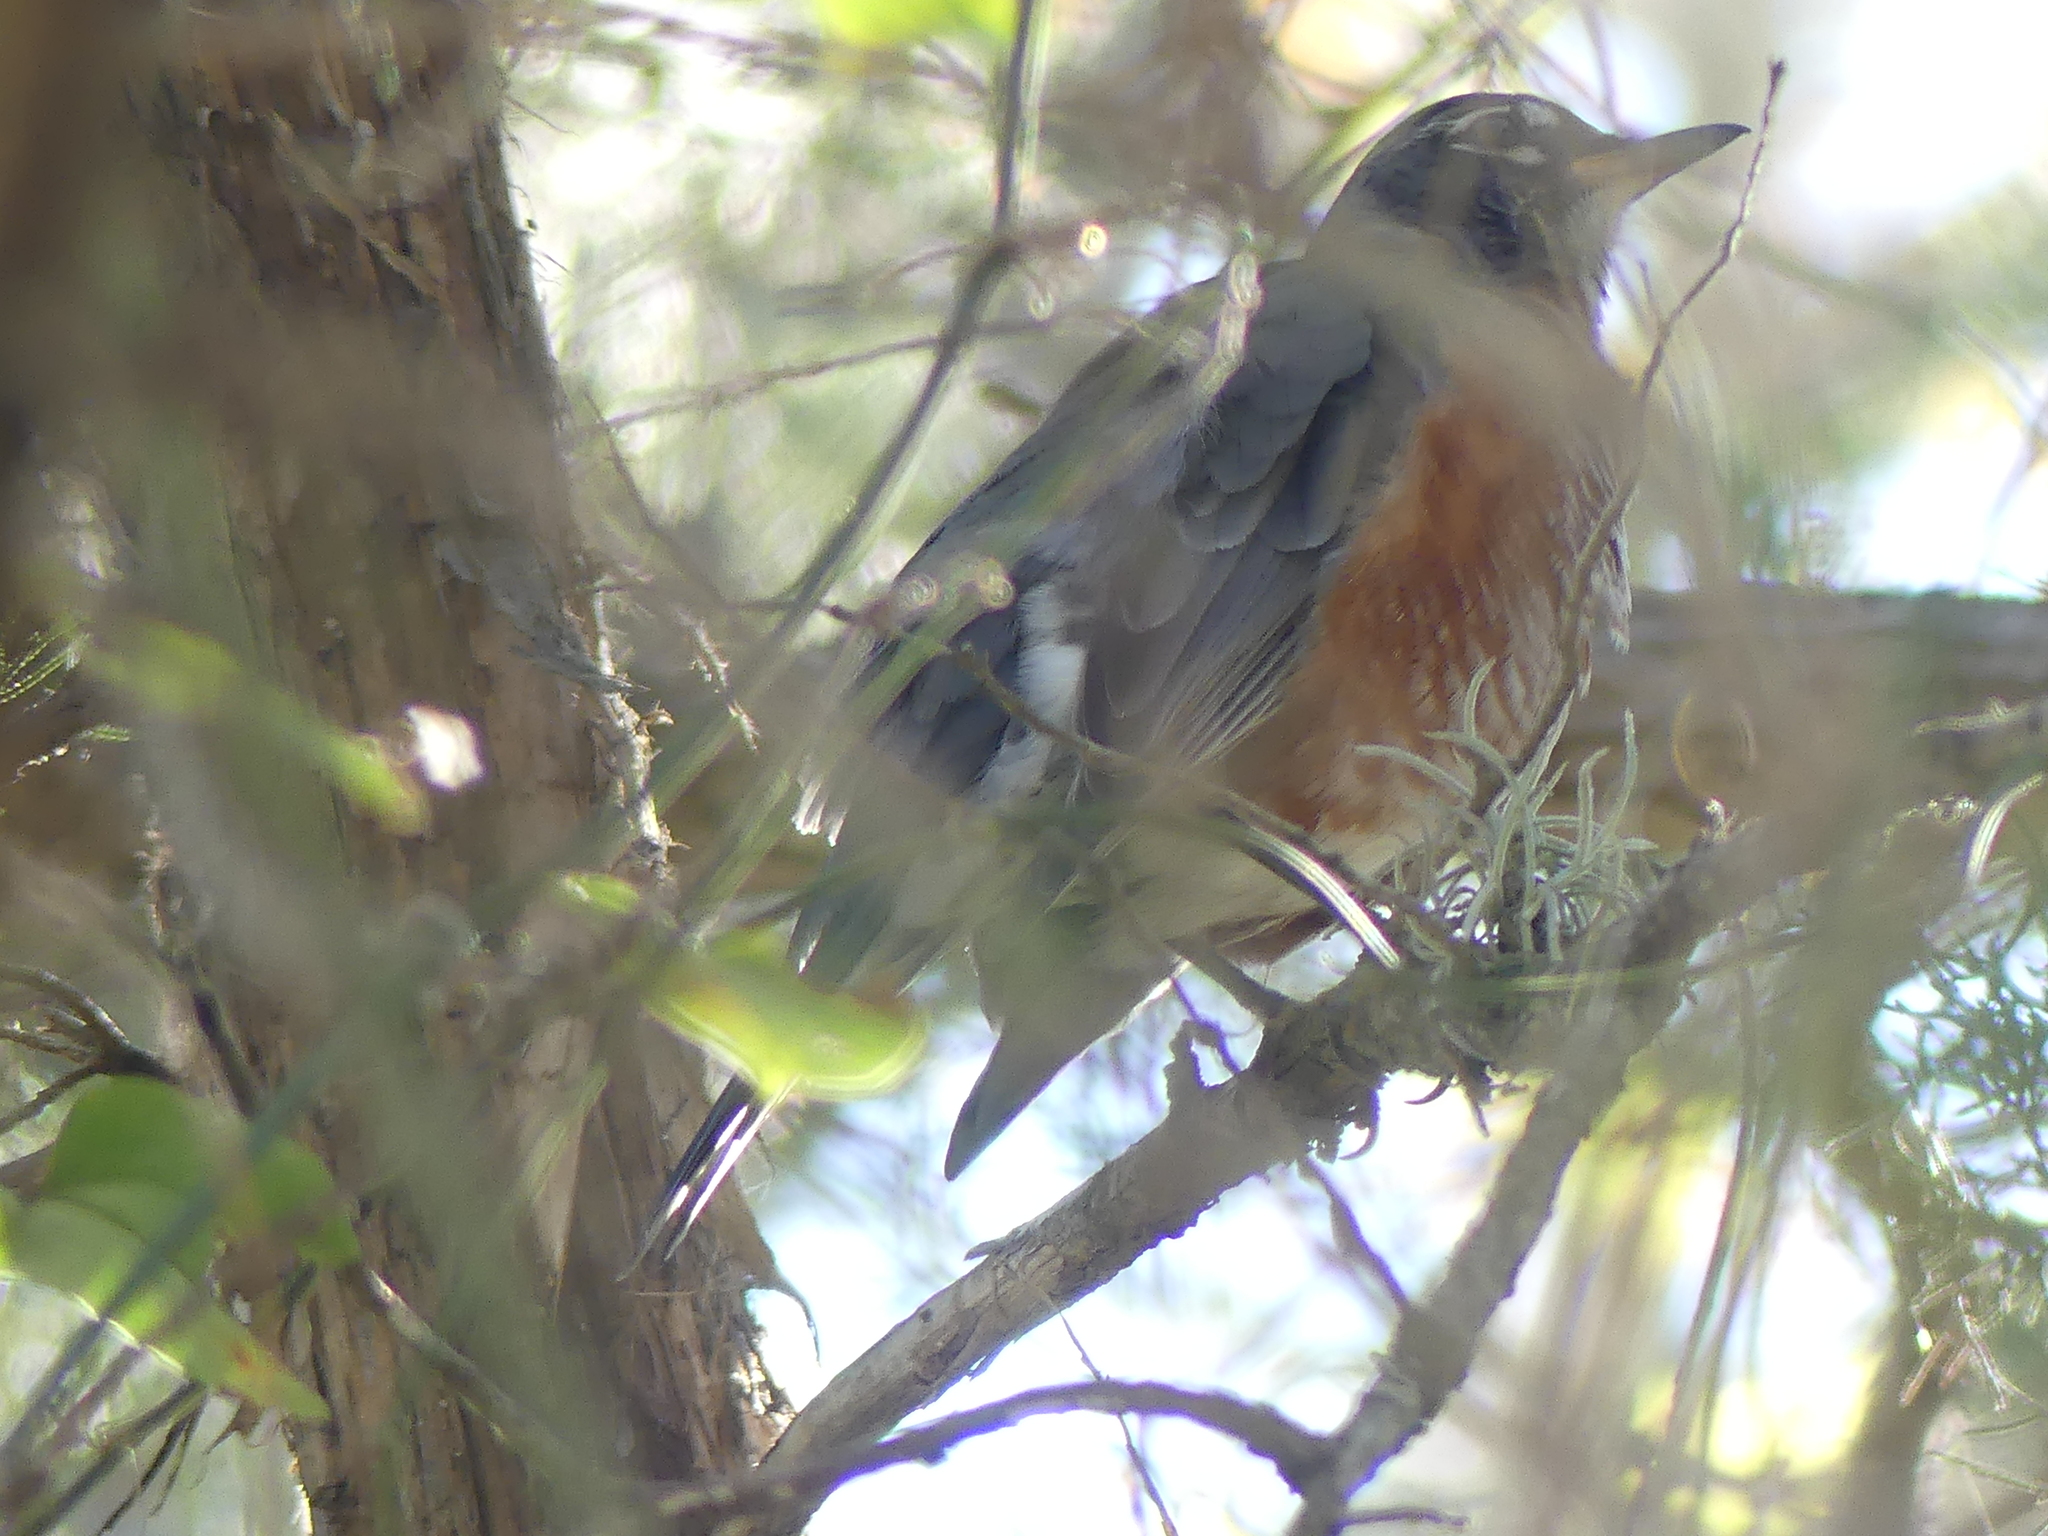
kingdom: Animalia
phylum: Chordata
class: Aves
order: Passeriformes
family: Turdidae
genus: Turdus
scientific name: Turdus migratorius
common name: American robin
